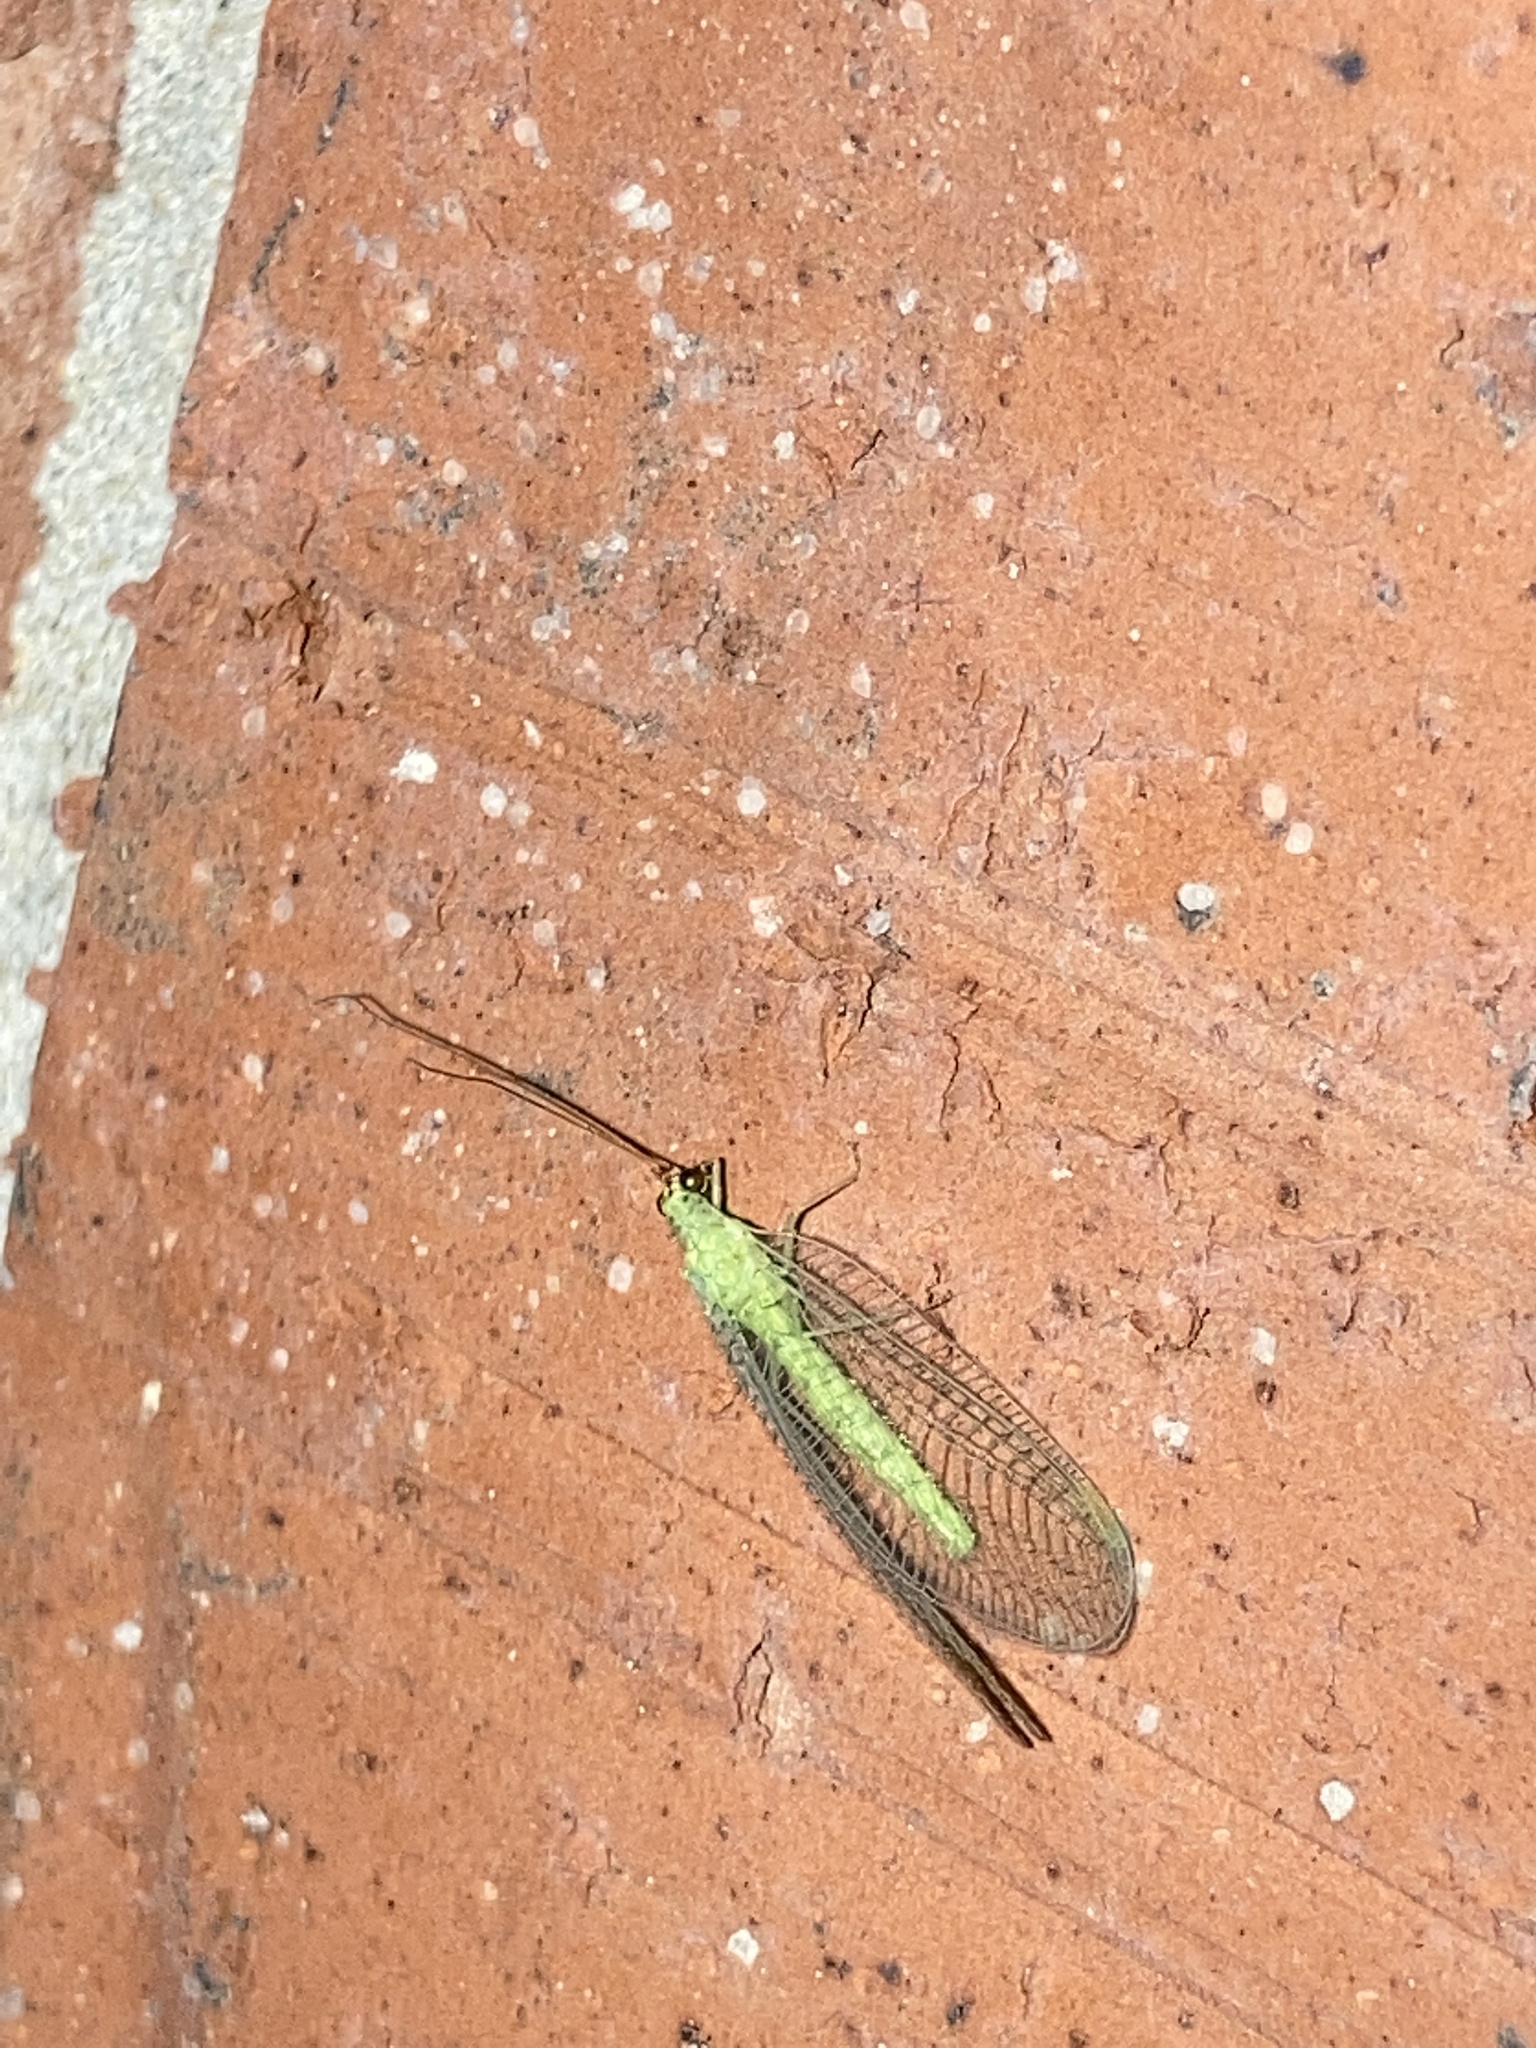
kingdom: Animalia
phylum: Arthropoda
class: Insecta
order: Neuroptera
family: Chrysopidae
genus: Chrysopa
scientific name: Chrysopa oculata
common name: Golden-eyed lacewing
